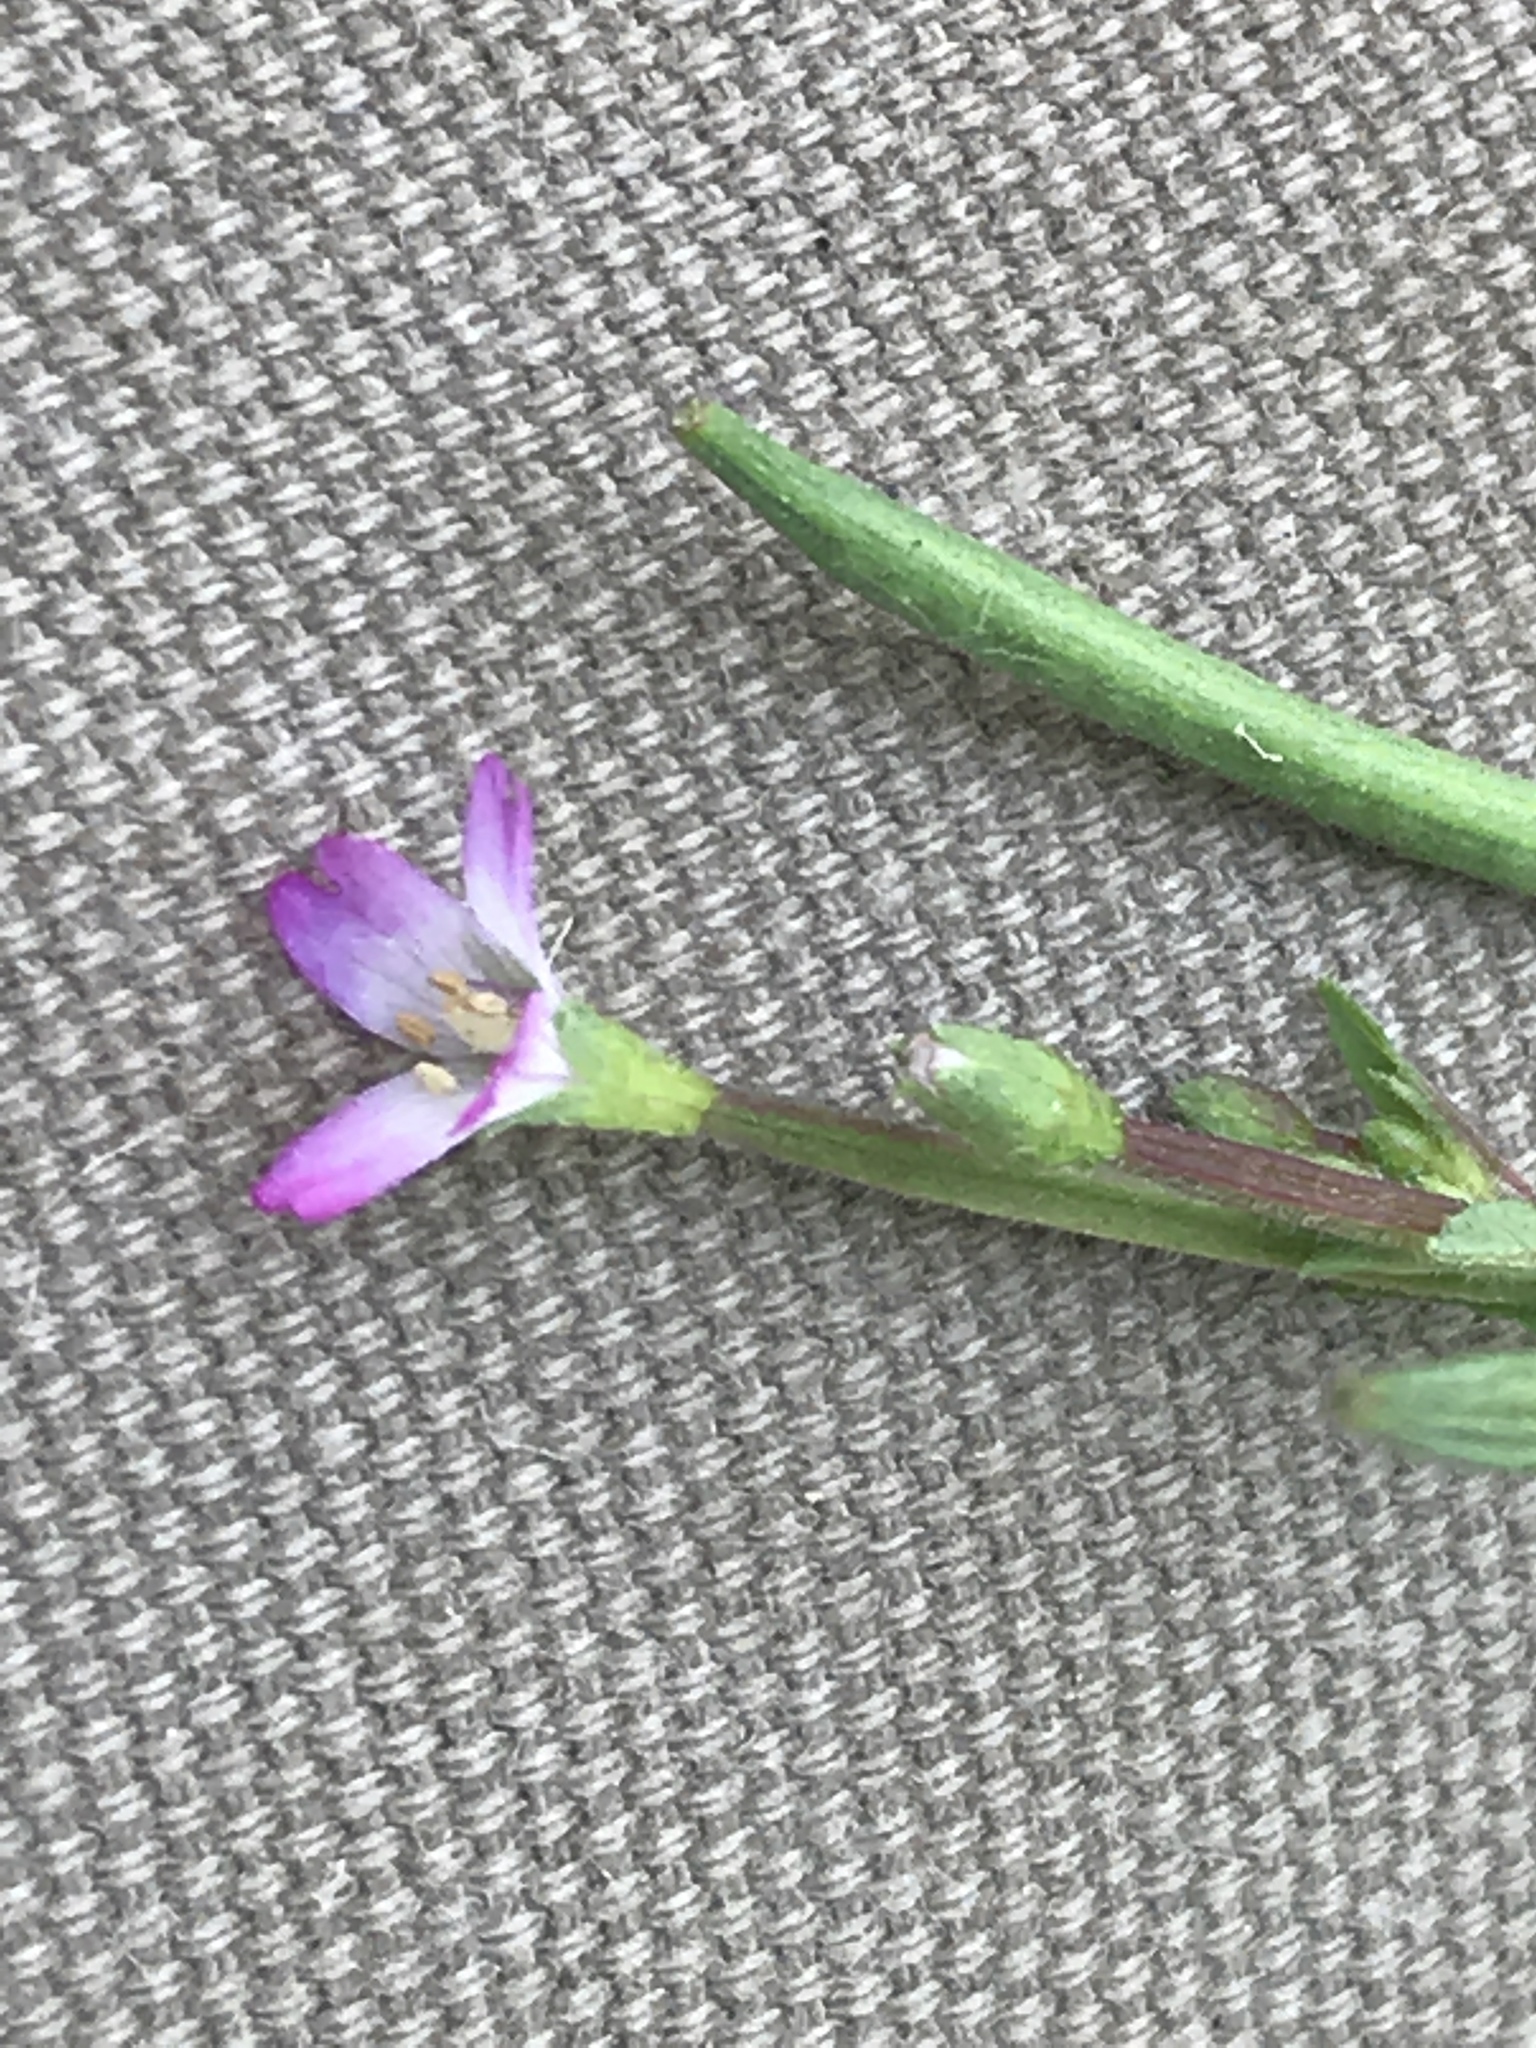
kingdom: Plantae
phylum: Tracheophyta
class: Magnoliopsida
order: Myrtales
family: Onagraceae
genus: Epilobium
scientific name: Epilobium ciliatum
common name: American willowherb
